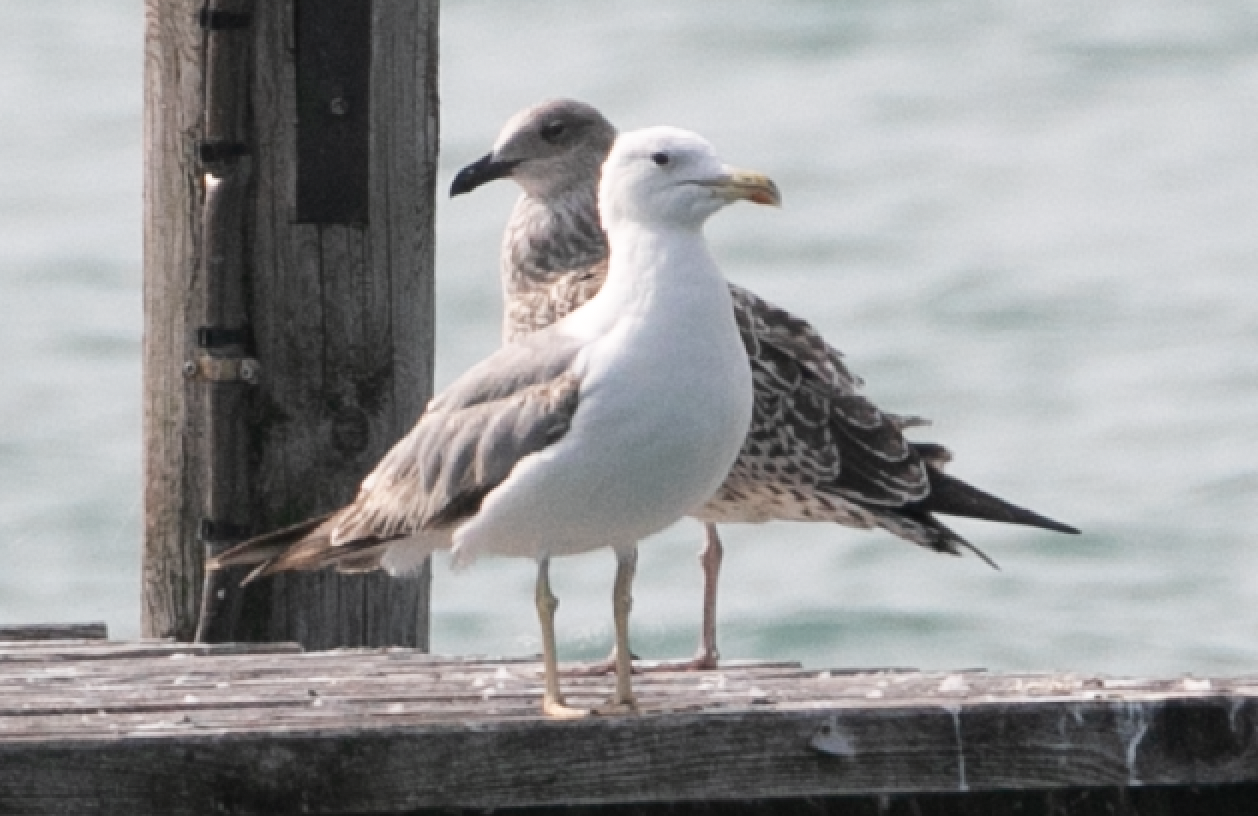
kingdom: Animalia
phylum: Chordata
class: Aves
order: Charadriiformes
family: Laridae
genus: Larus
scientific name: Larus michahellis
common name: Yellow-legged gull
